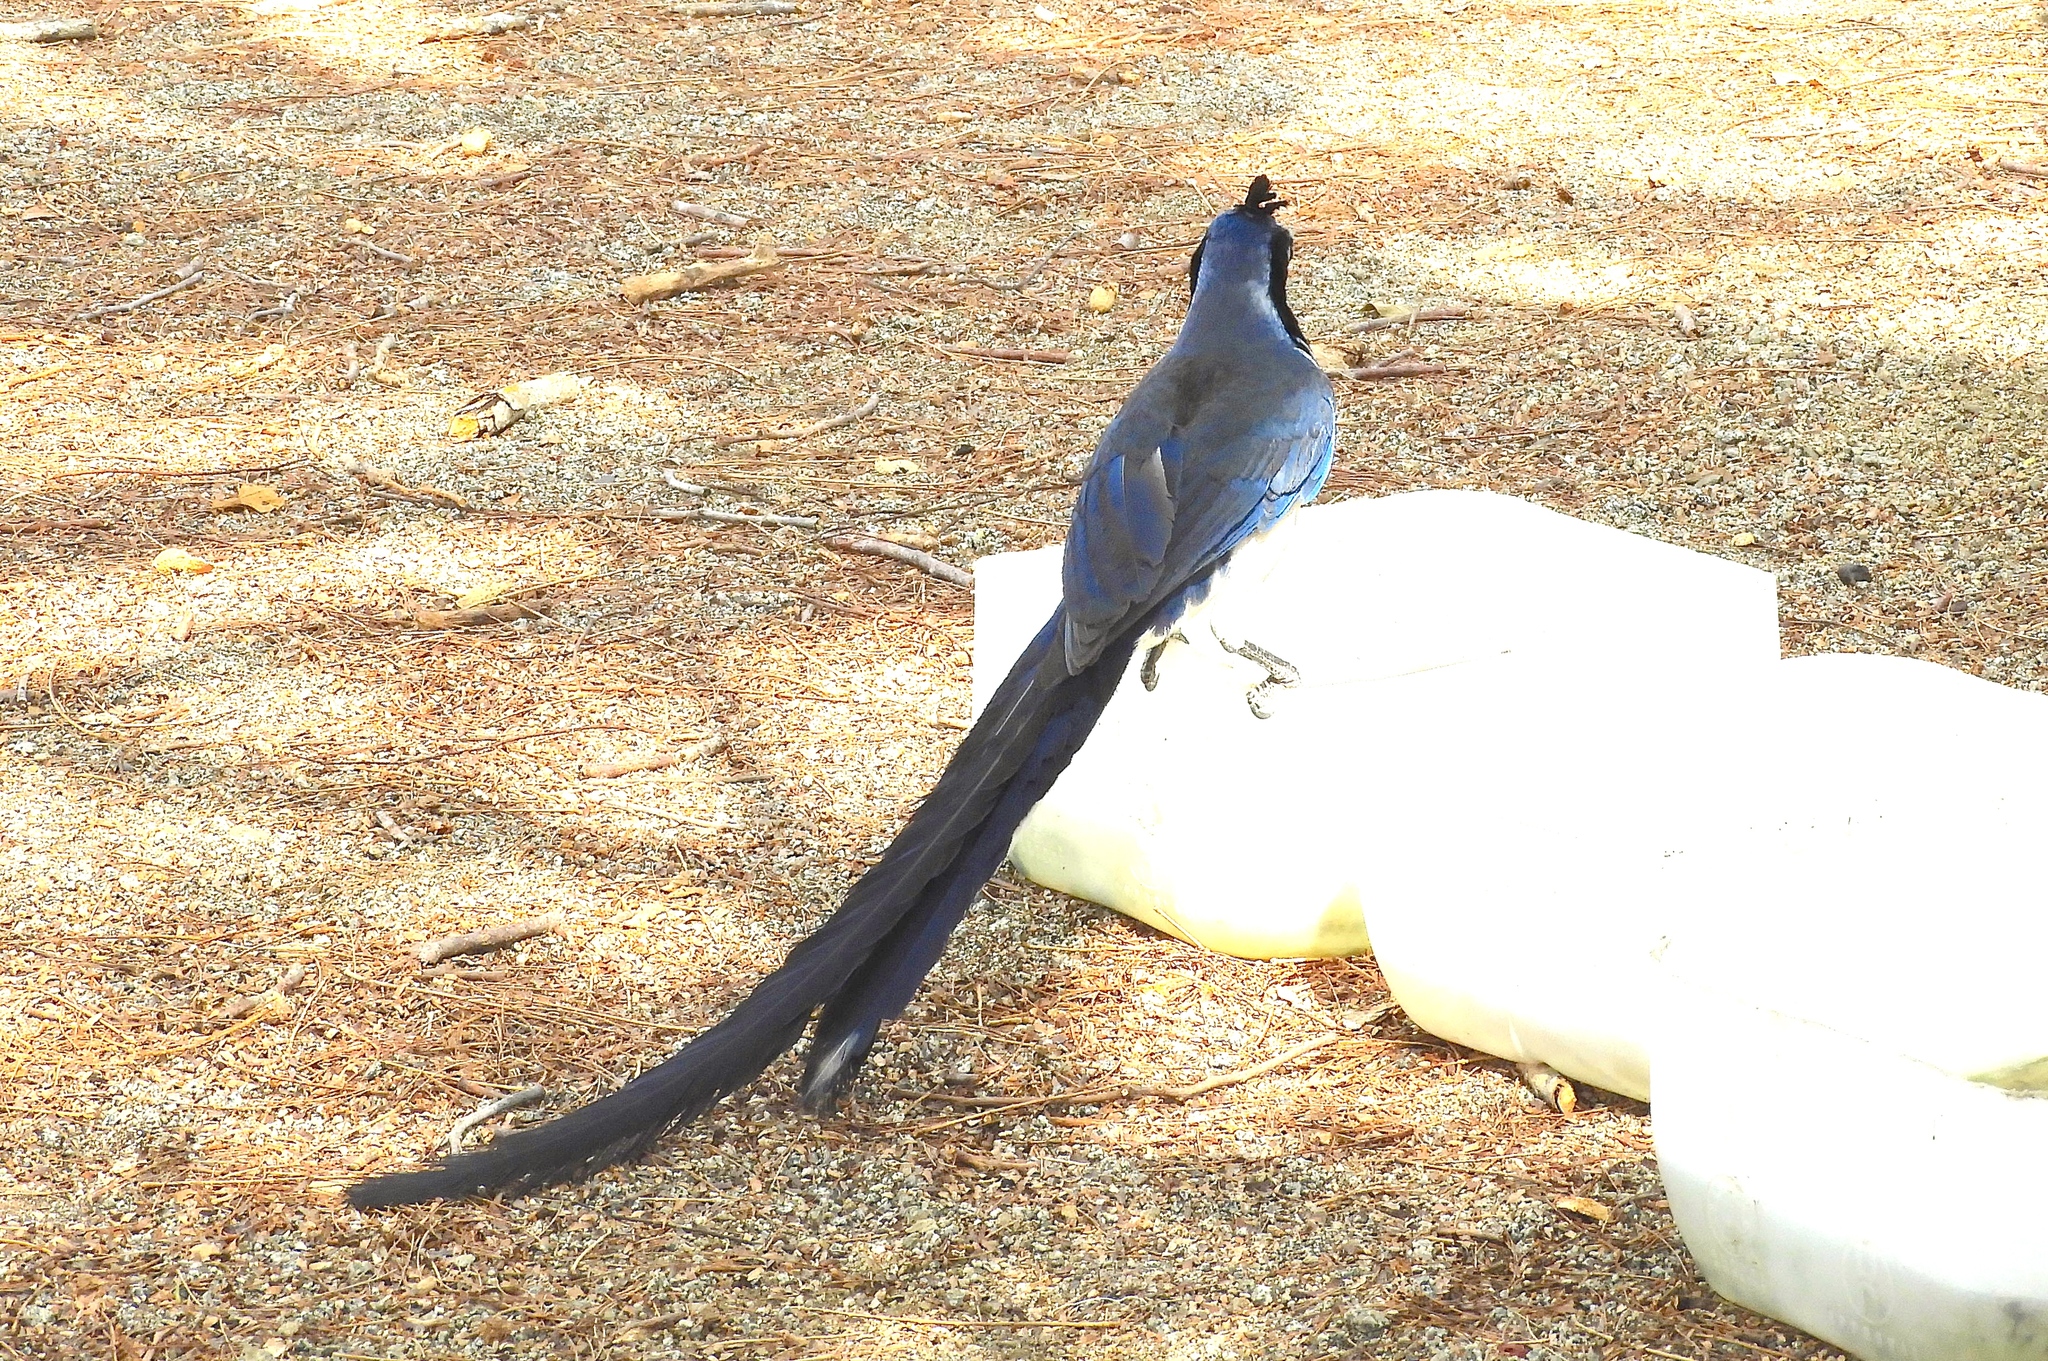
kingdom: Animalia
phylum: Chordata
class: Aves
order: Passeriformes
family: Corvidae
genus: Calocitta
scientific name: Calocitta colliei
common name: Black-throated magpie-jay
